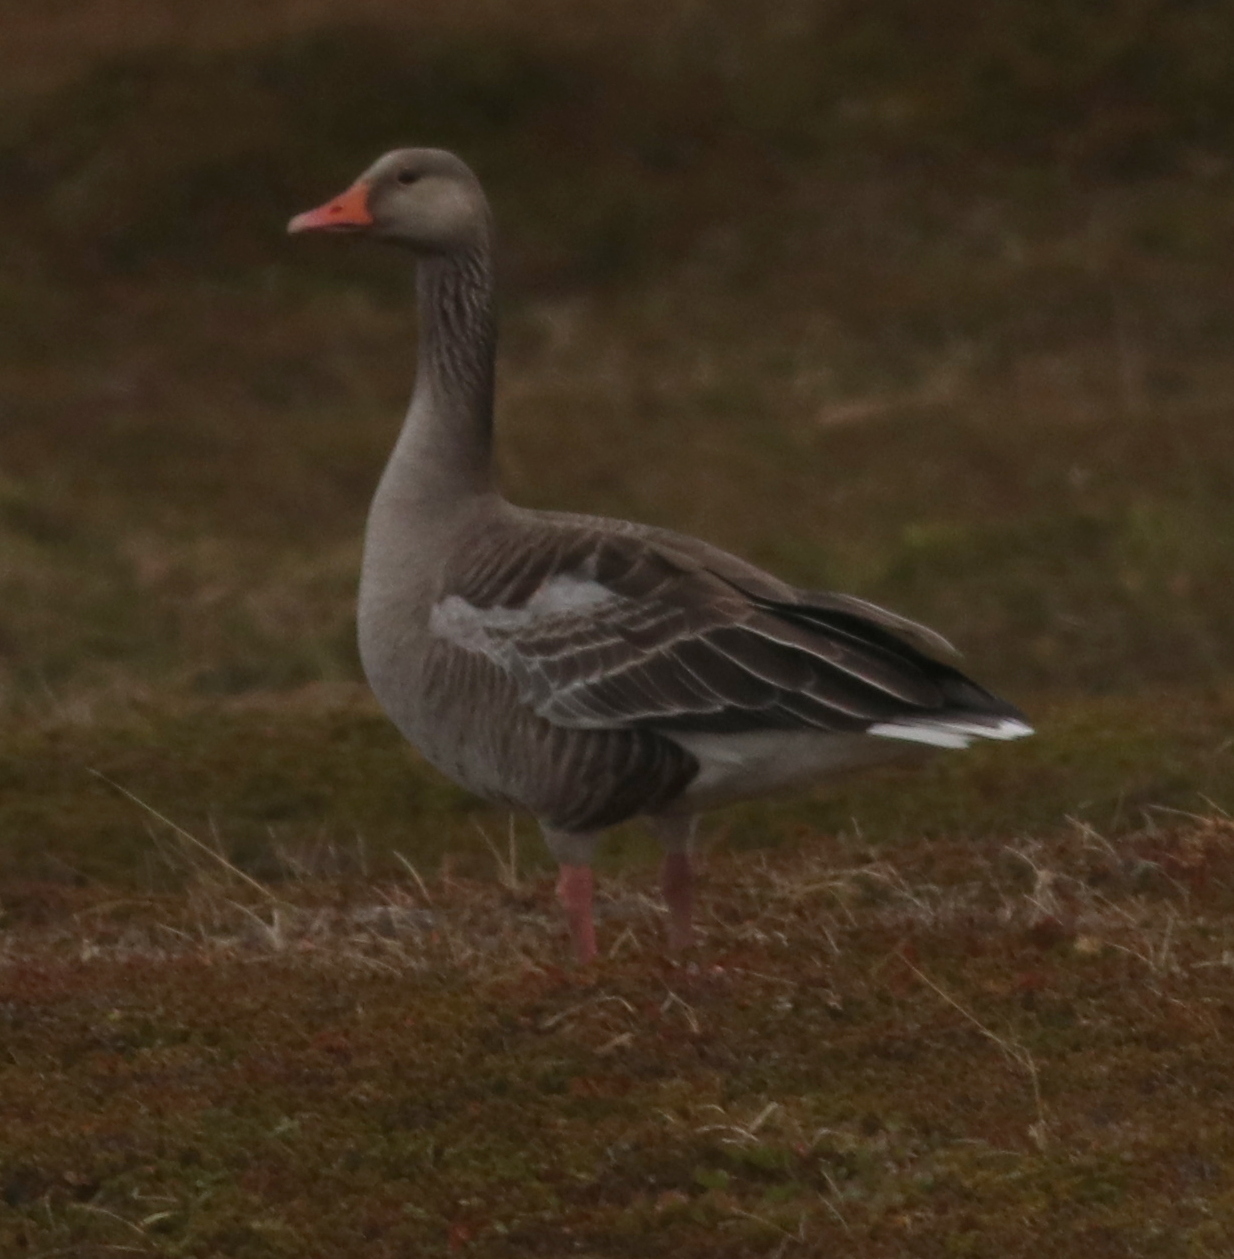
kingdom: Animalia
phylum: Chordata
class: Aves
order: Anseriformes
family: Anatidae
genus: Anser
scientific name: Anser anser
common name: Greylag goose
